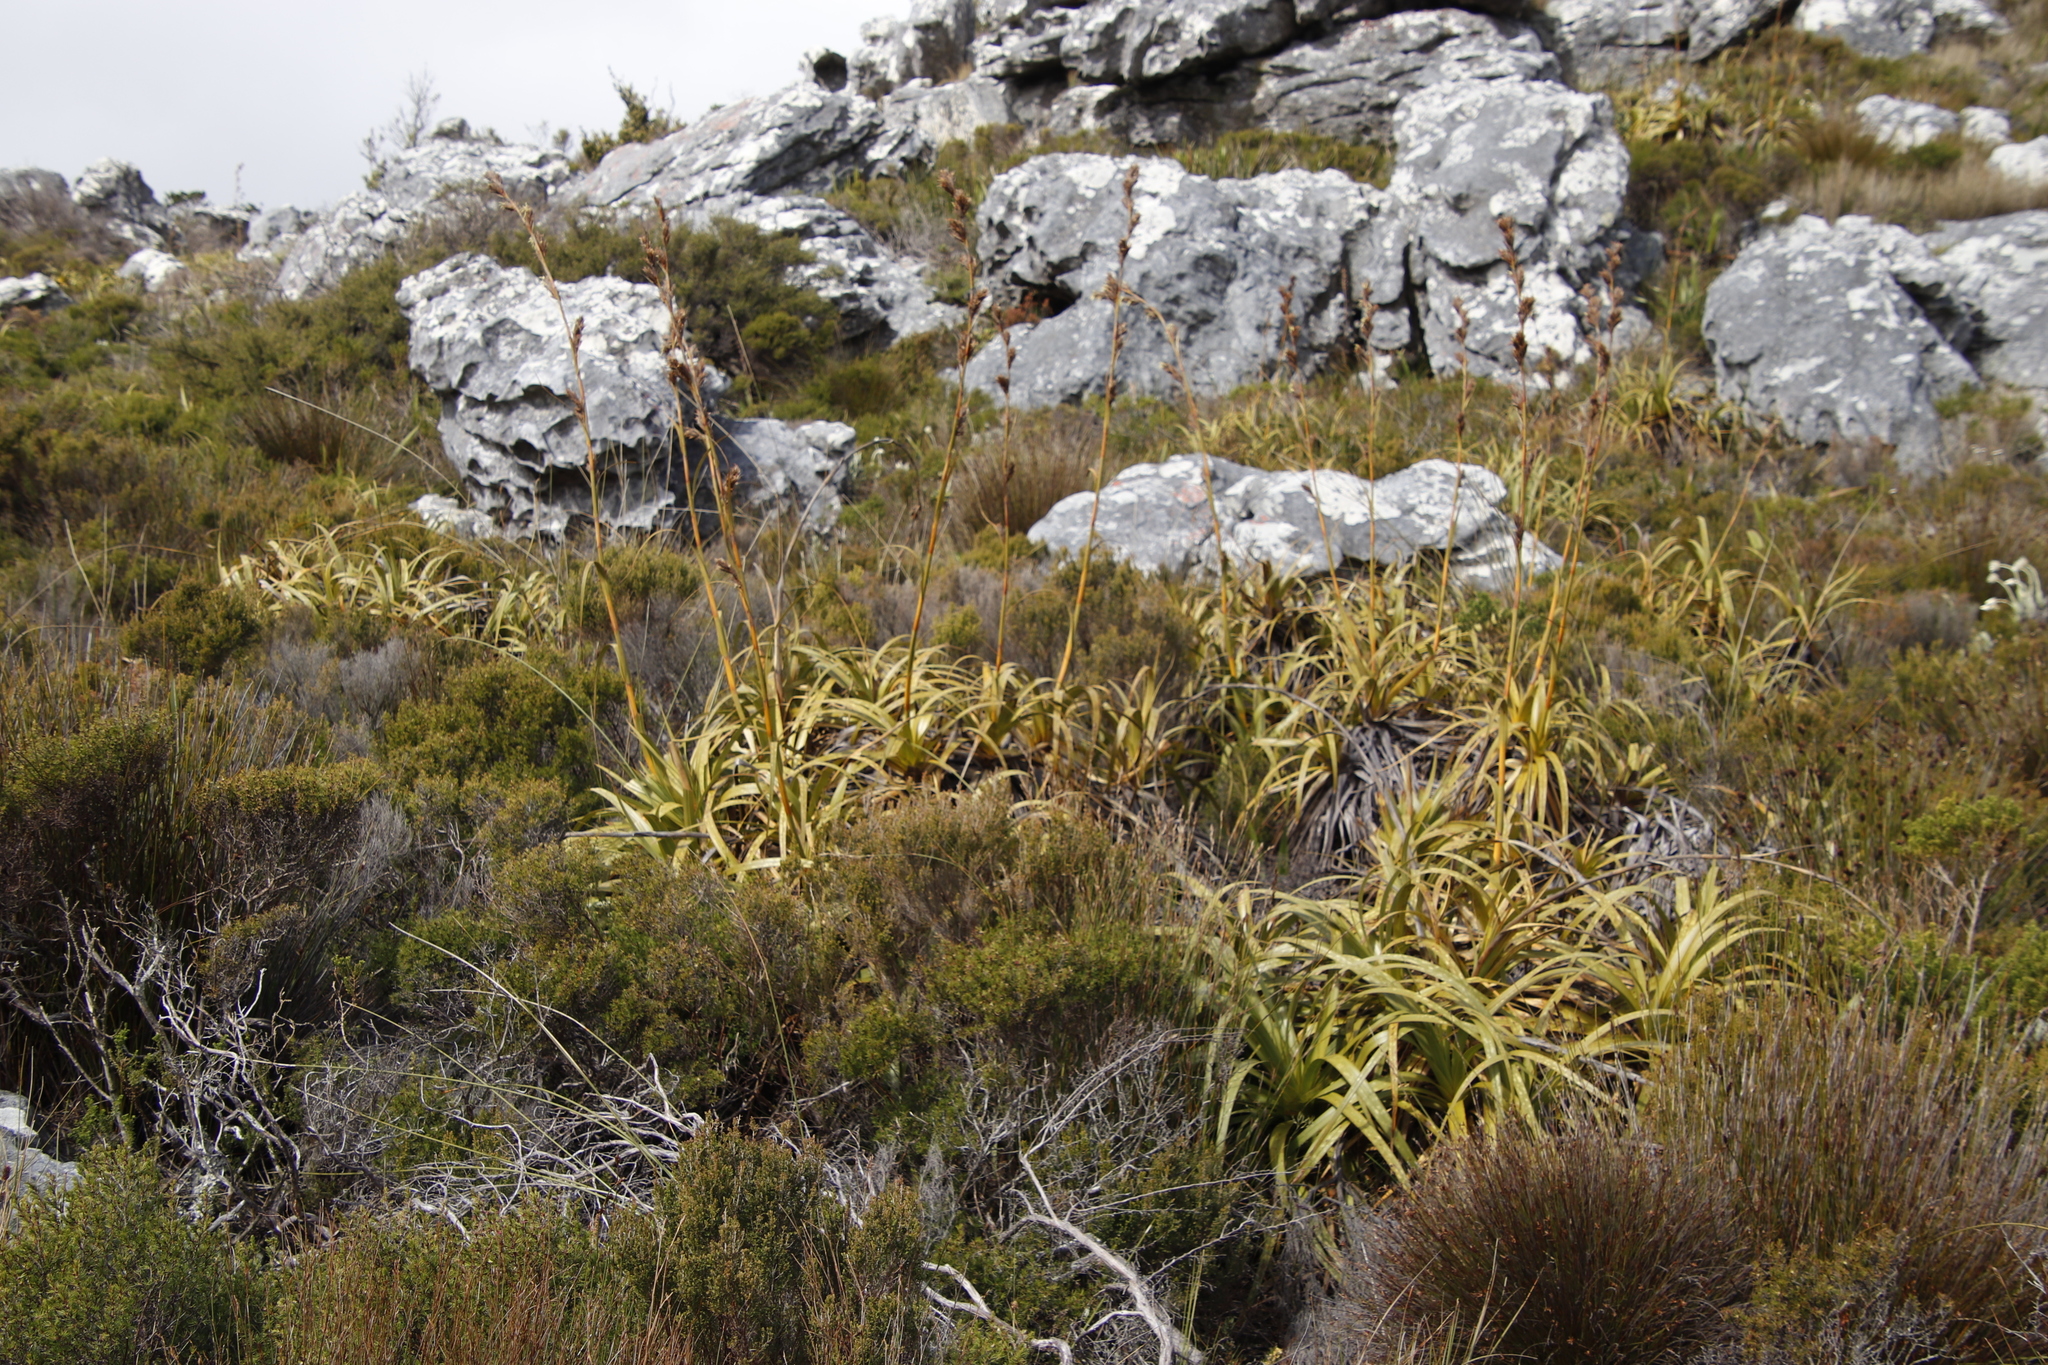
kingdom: Plantae
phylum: Tracheophyta
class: Liliopsida
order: Poales
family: Cyperaceae
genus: Tetraria
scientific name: Tetraria thermalis
